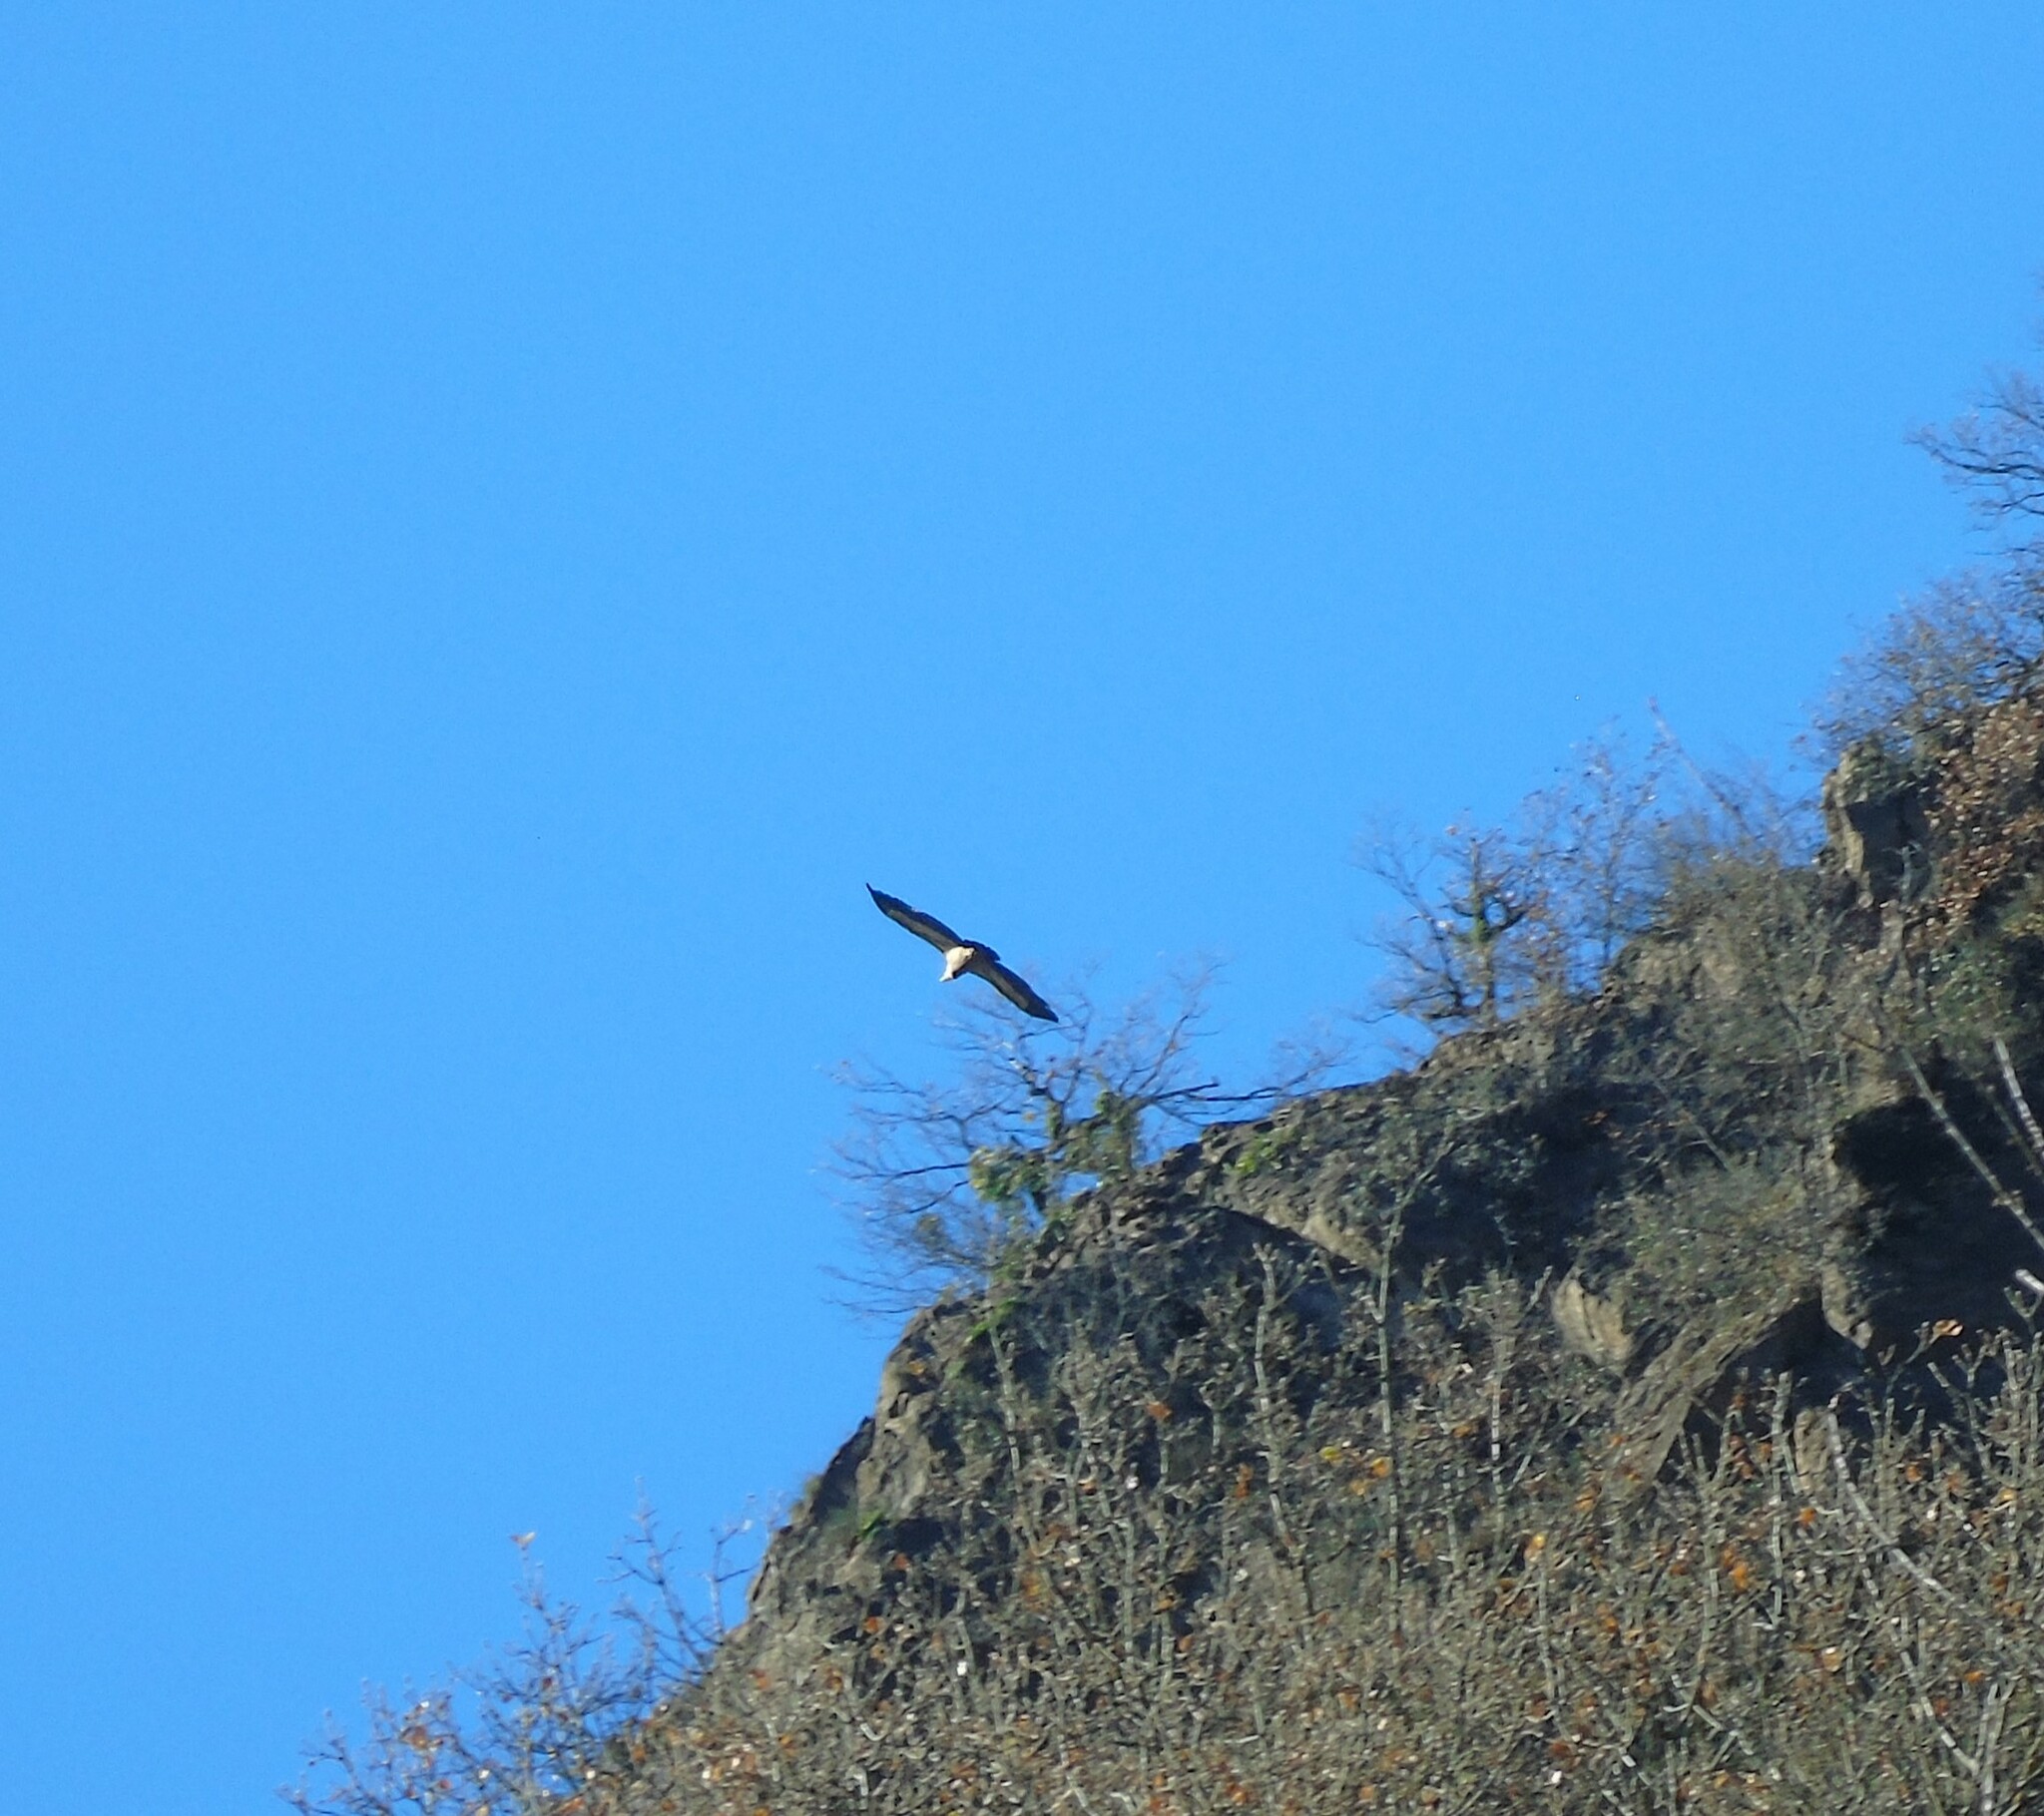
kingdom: Animalia
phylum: Chordata
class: Aves
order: Accipitriformes
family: Accipitridae
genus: Gyps
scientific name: Gyps fulvus
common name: Griffon vulture
